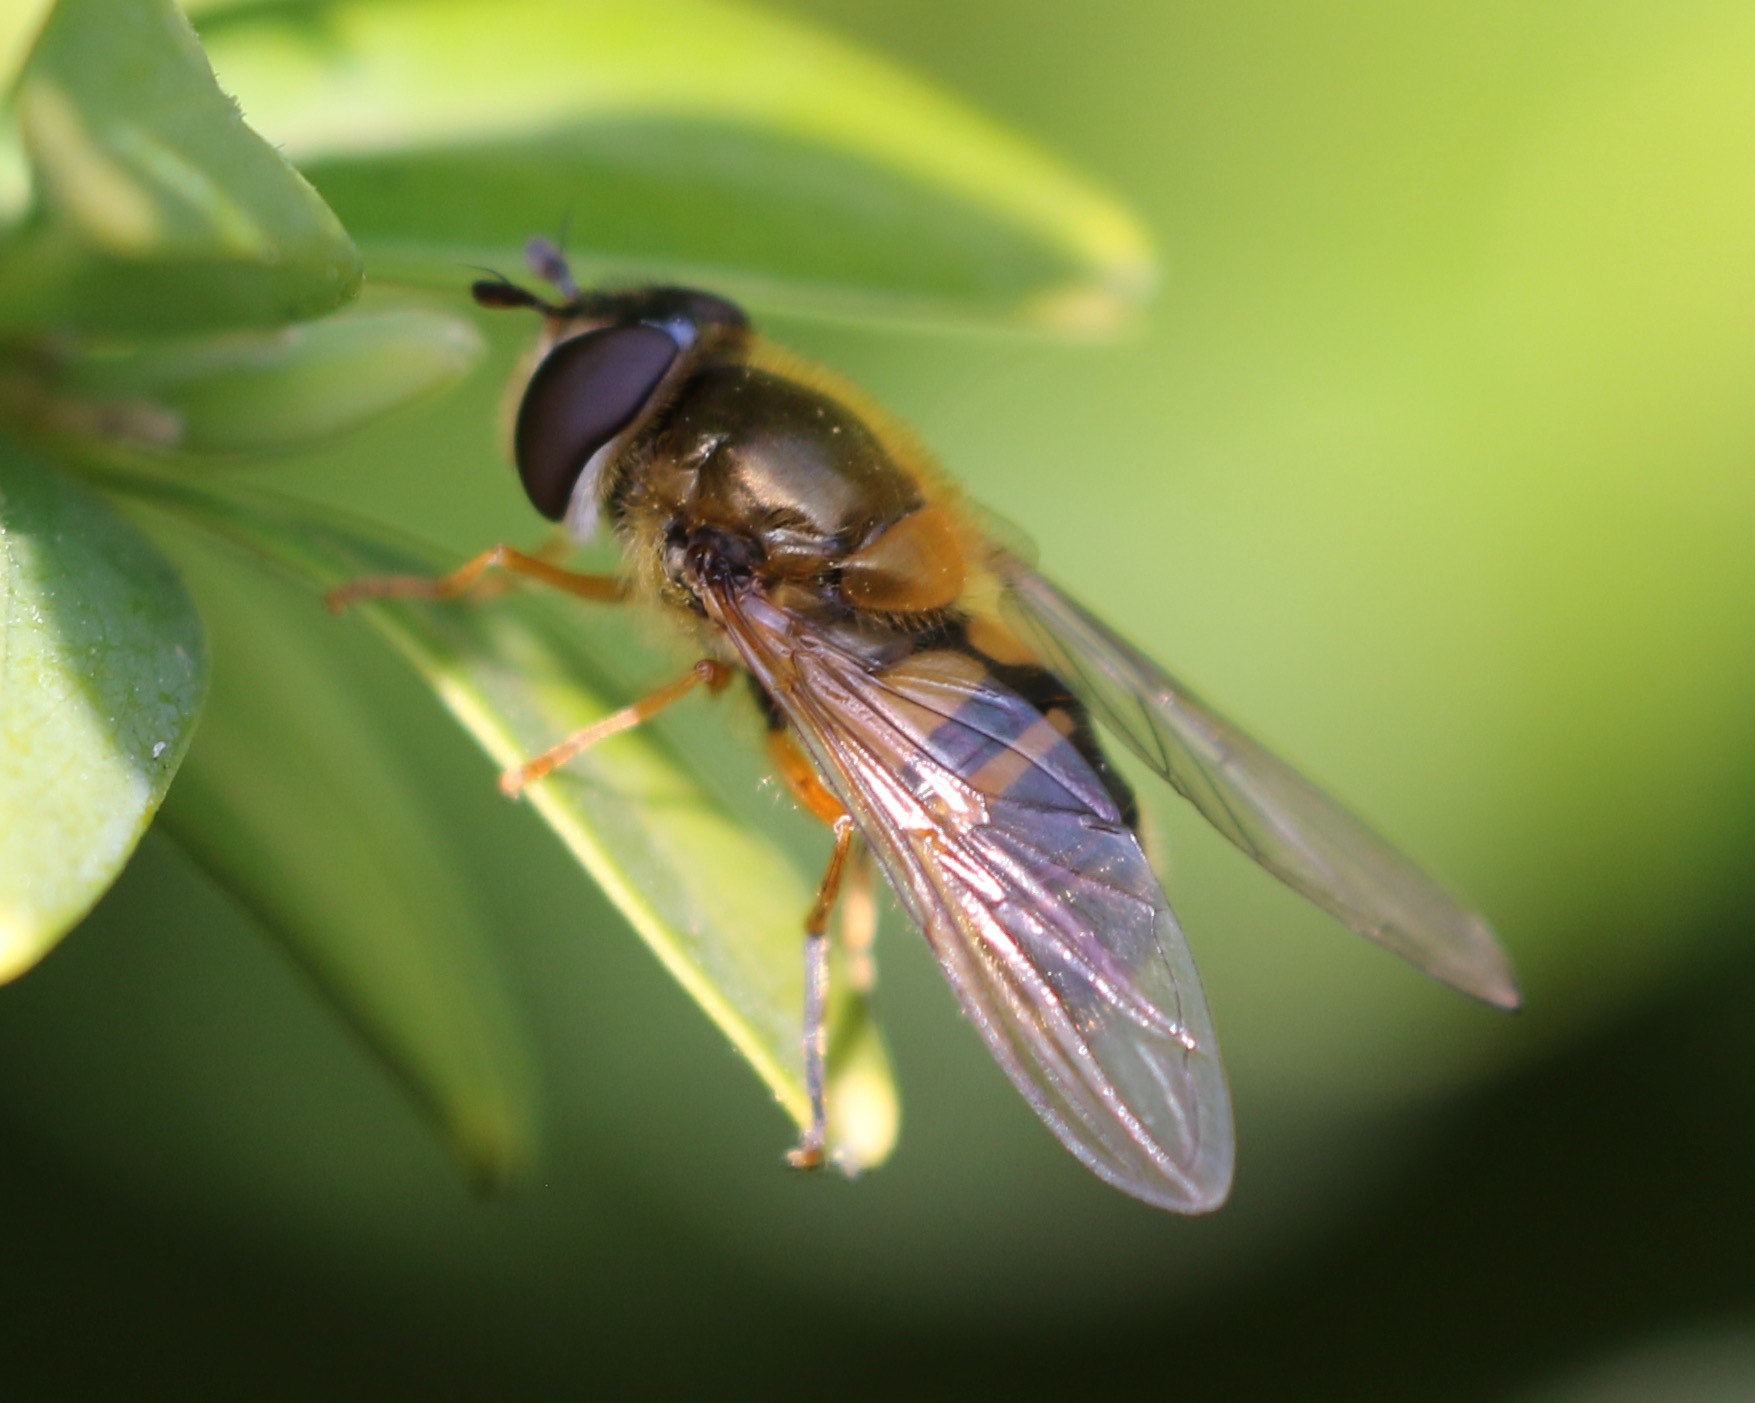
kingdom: Animalia
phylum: Arthropoda
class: Insecta
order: Diptera
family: Syrphidae
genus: Epistrophe
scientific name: Epistrophe eligans
